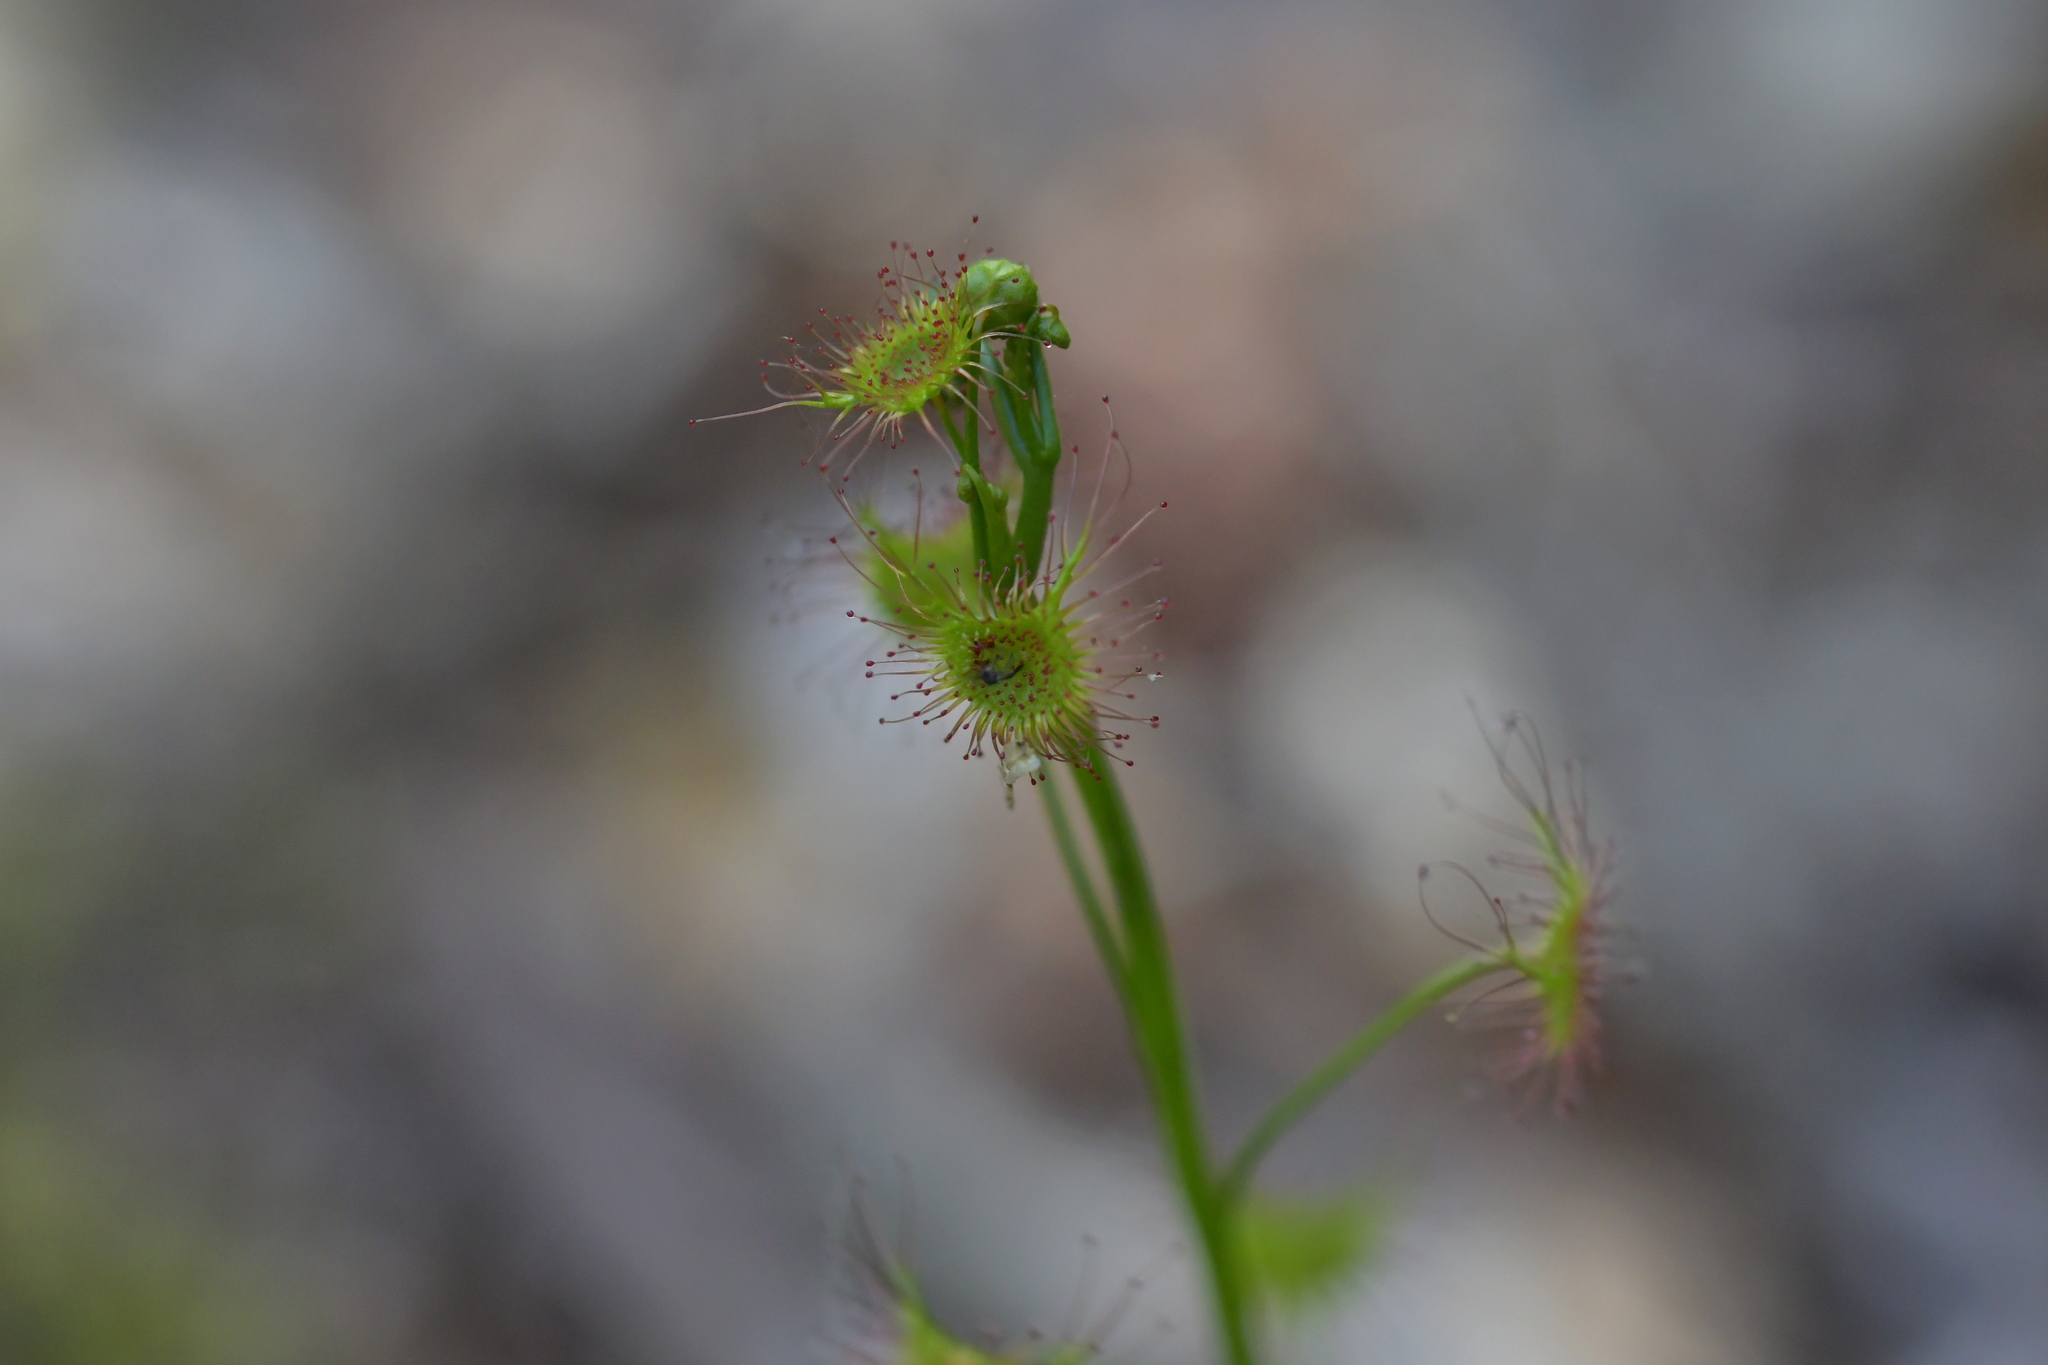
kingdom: Plantae
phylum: Tracheophyta
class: Magnoliopsida
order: Caryophyllales
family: Droseraceae
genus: Drosera
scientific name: Drosera peltata
